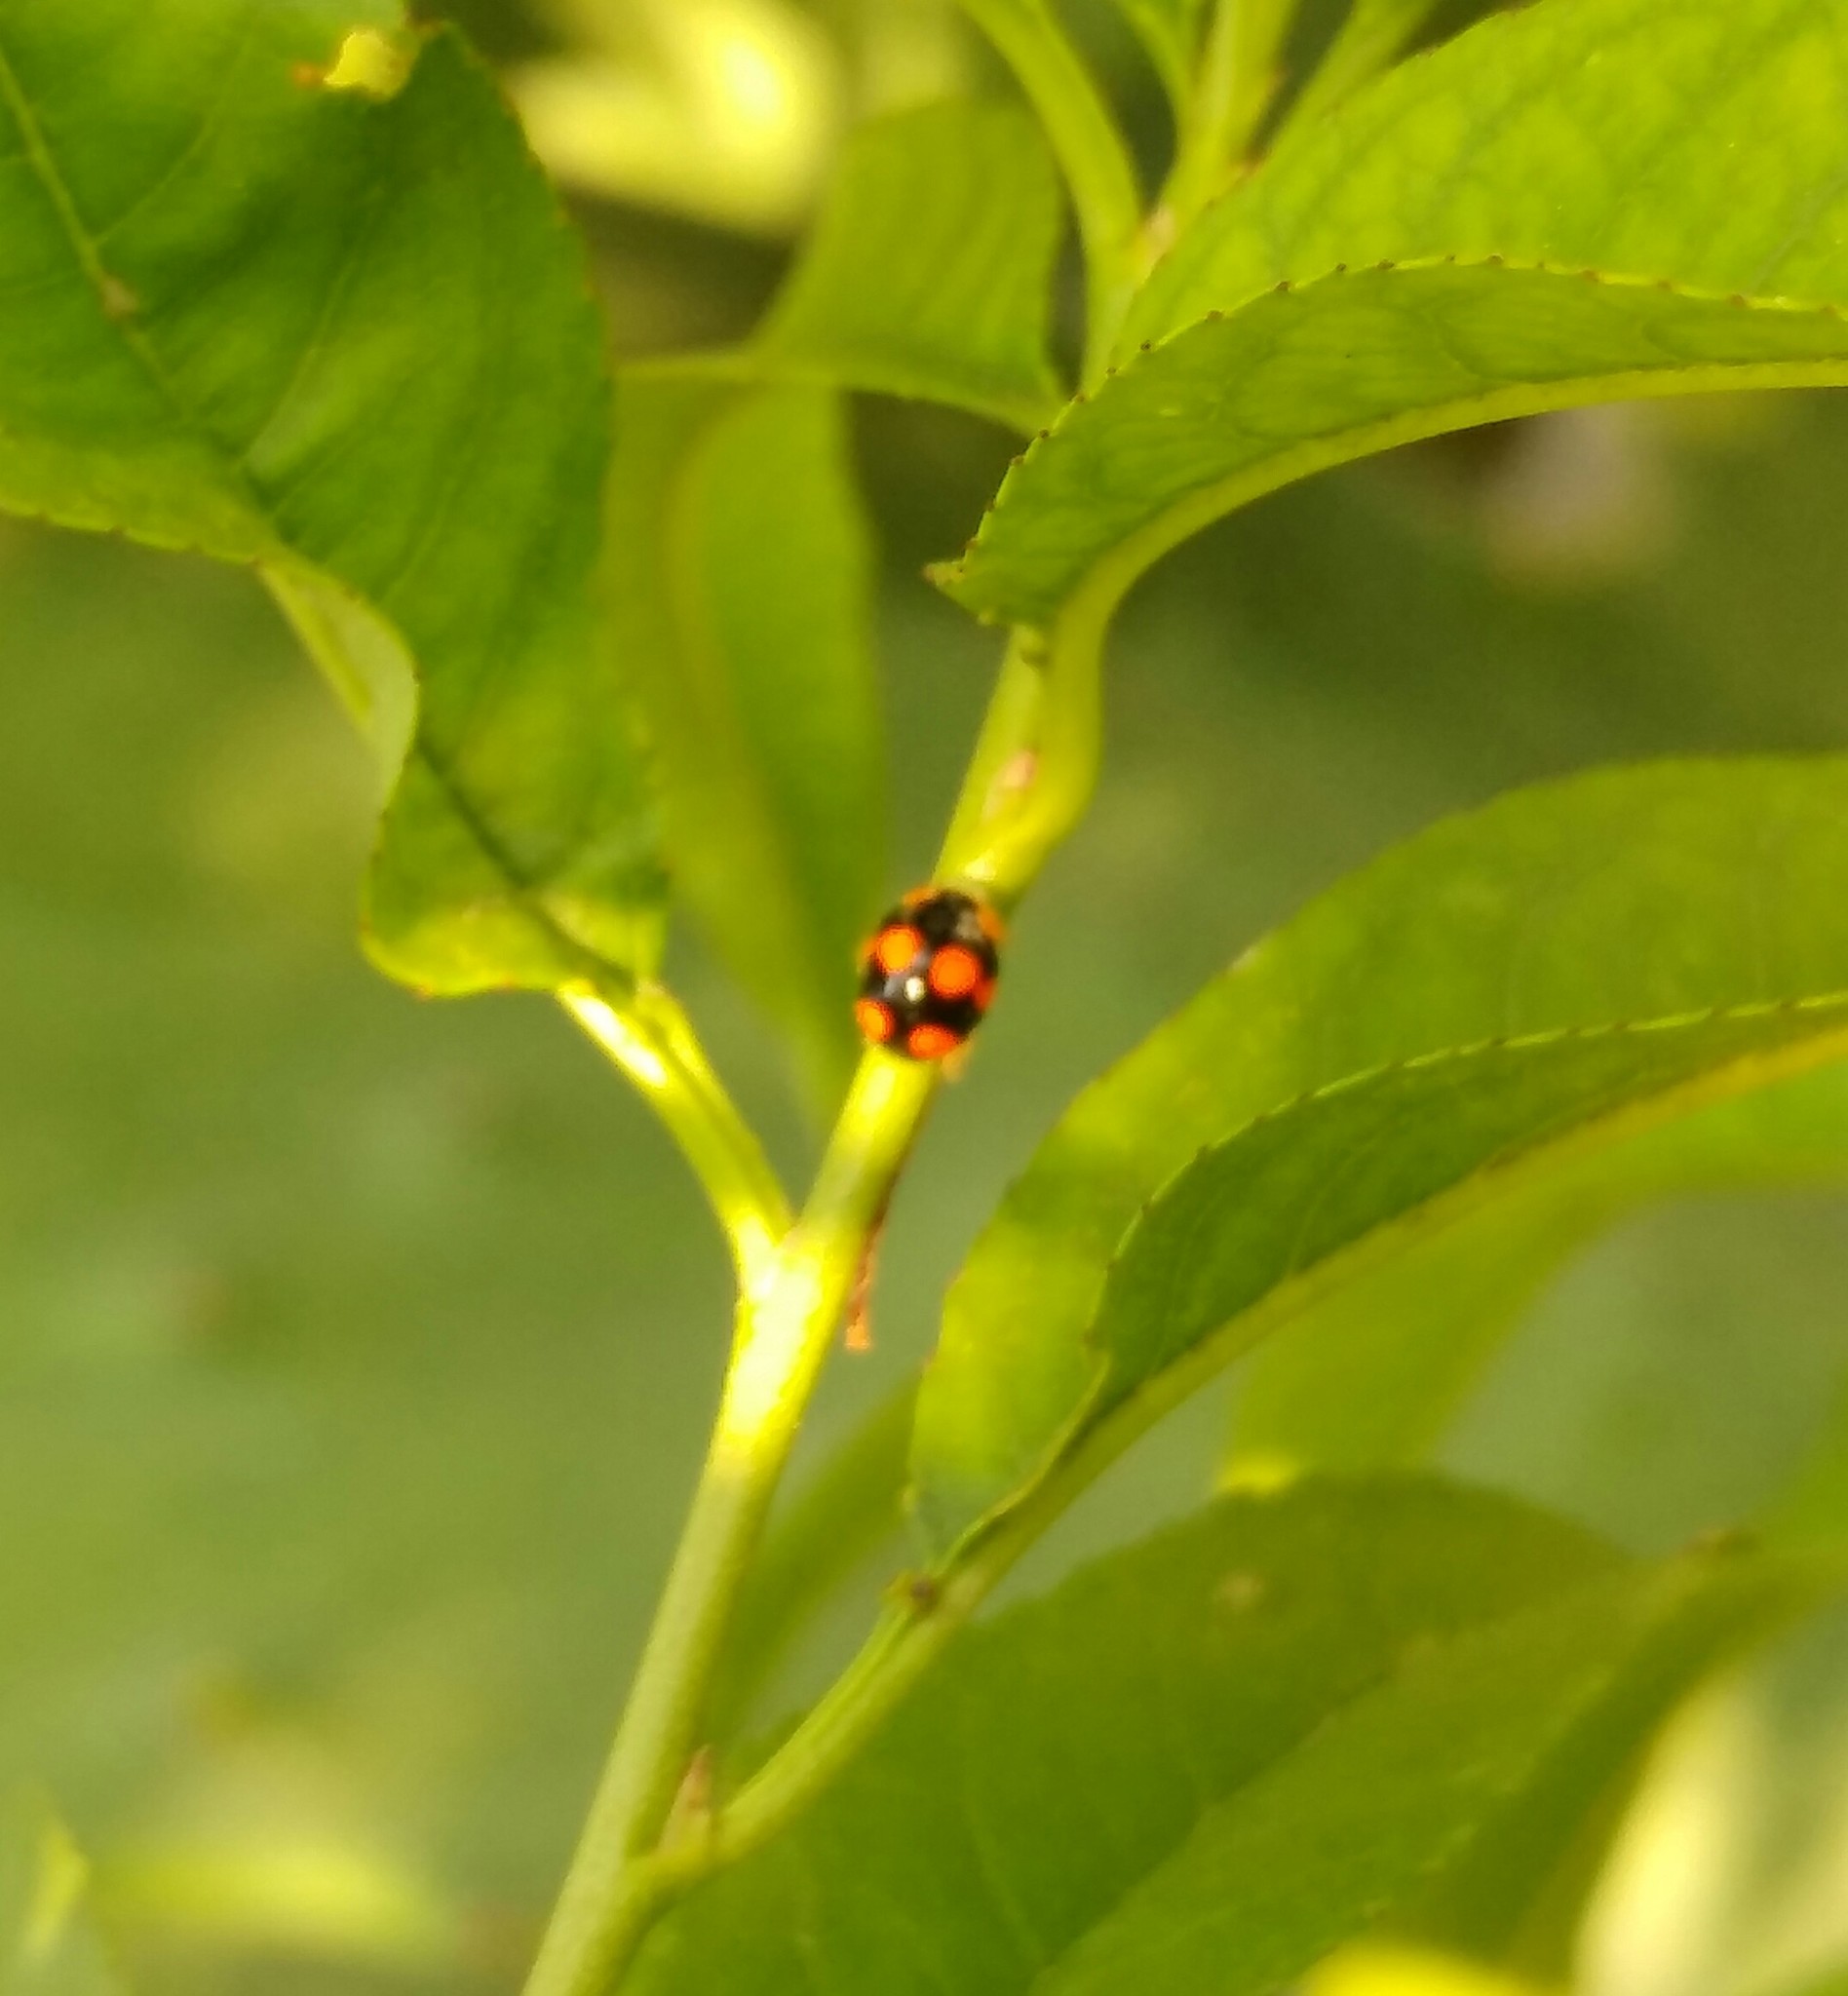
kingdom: Animalia
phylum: Arthropoda
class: Insecta
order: Coleoptera
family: Coccinellidae
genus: Brachiacantha
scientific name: Brachiacantha decora
